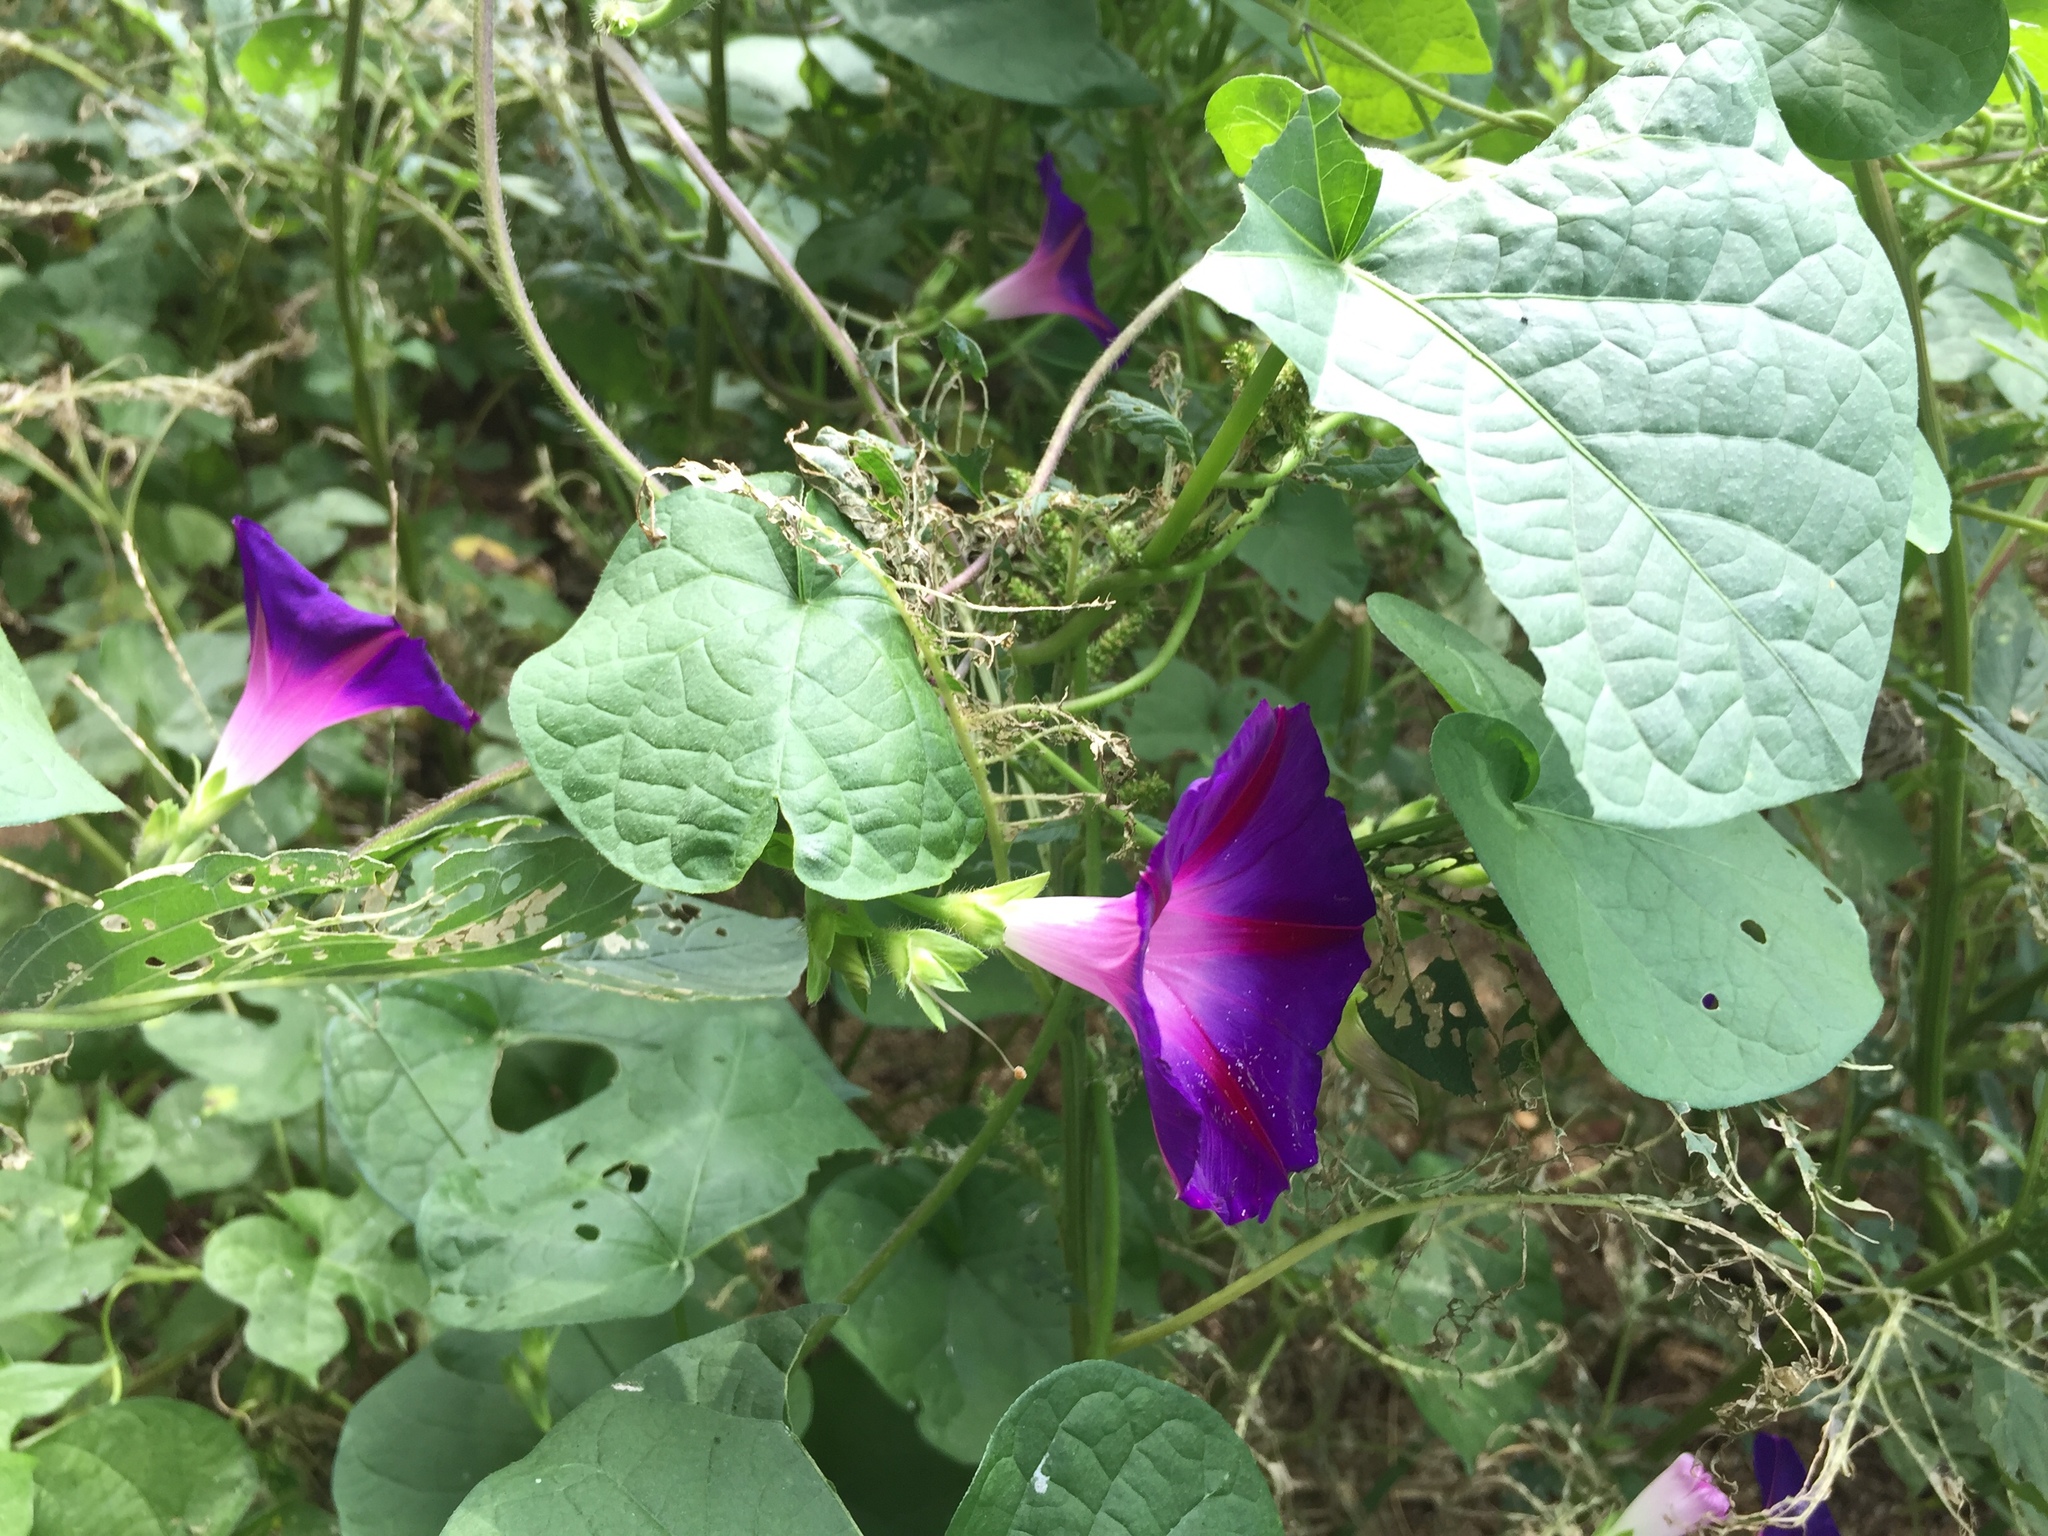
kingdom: Plantae
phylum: Tracheophyta
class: Magnoliopsida
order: Solanales
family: Convolvulaceae
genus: Ipomoea
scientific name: Ipomoea purpurea
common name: Common morning-glory
